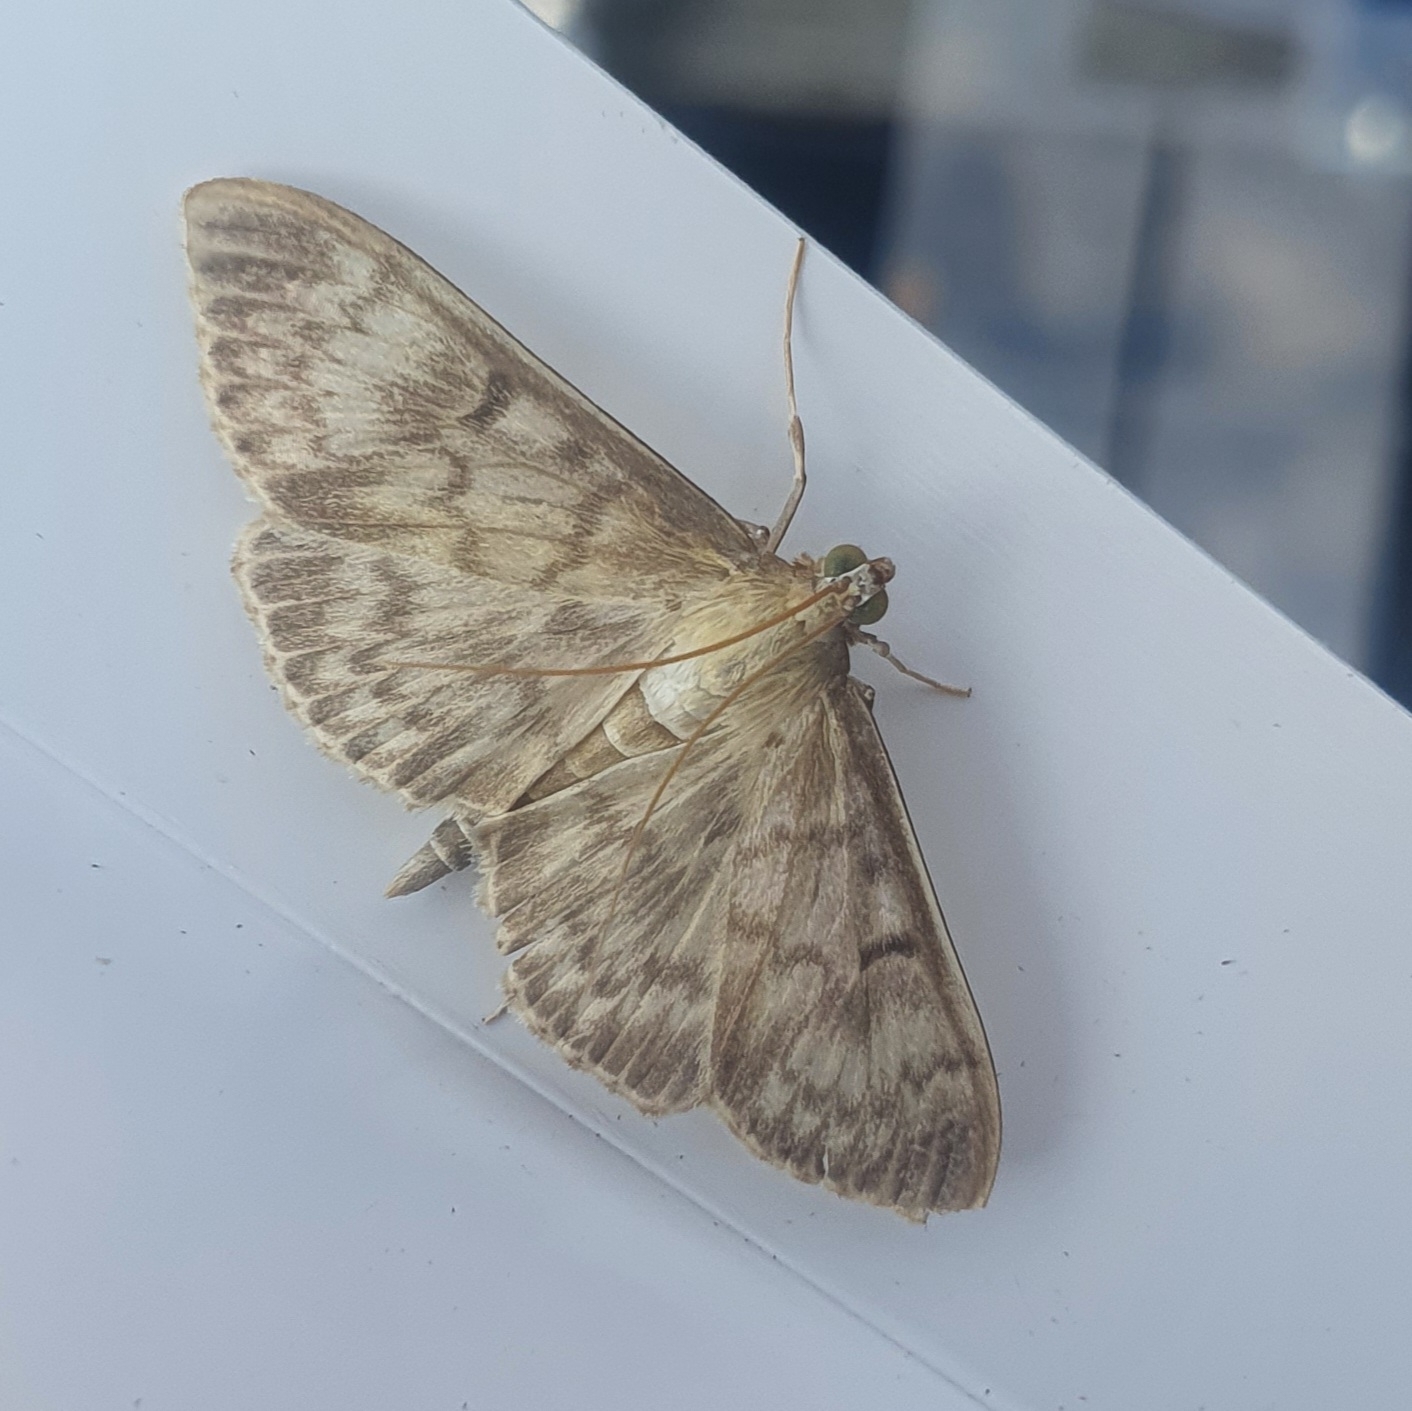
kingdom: Animalia
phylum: Arthropoda
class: Insecta
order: Lepidoptera
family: Crambidae
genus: Patania
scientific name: Patania ruralis
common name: Mother of pearl
